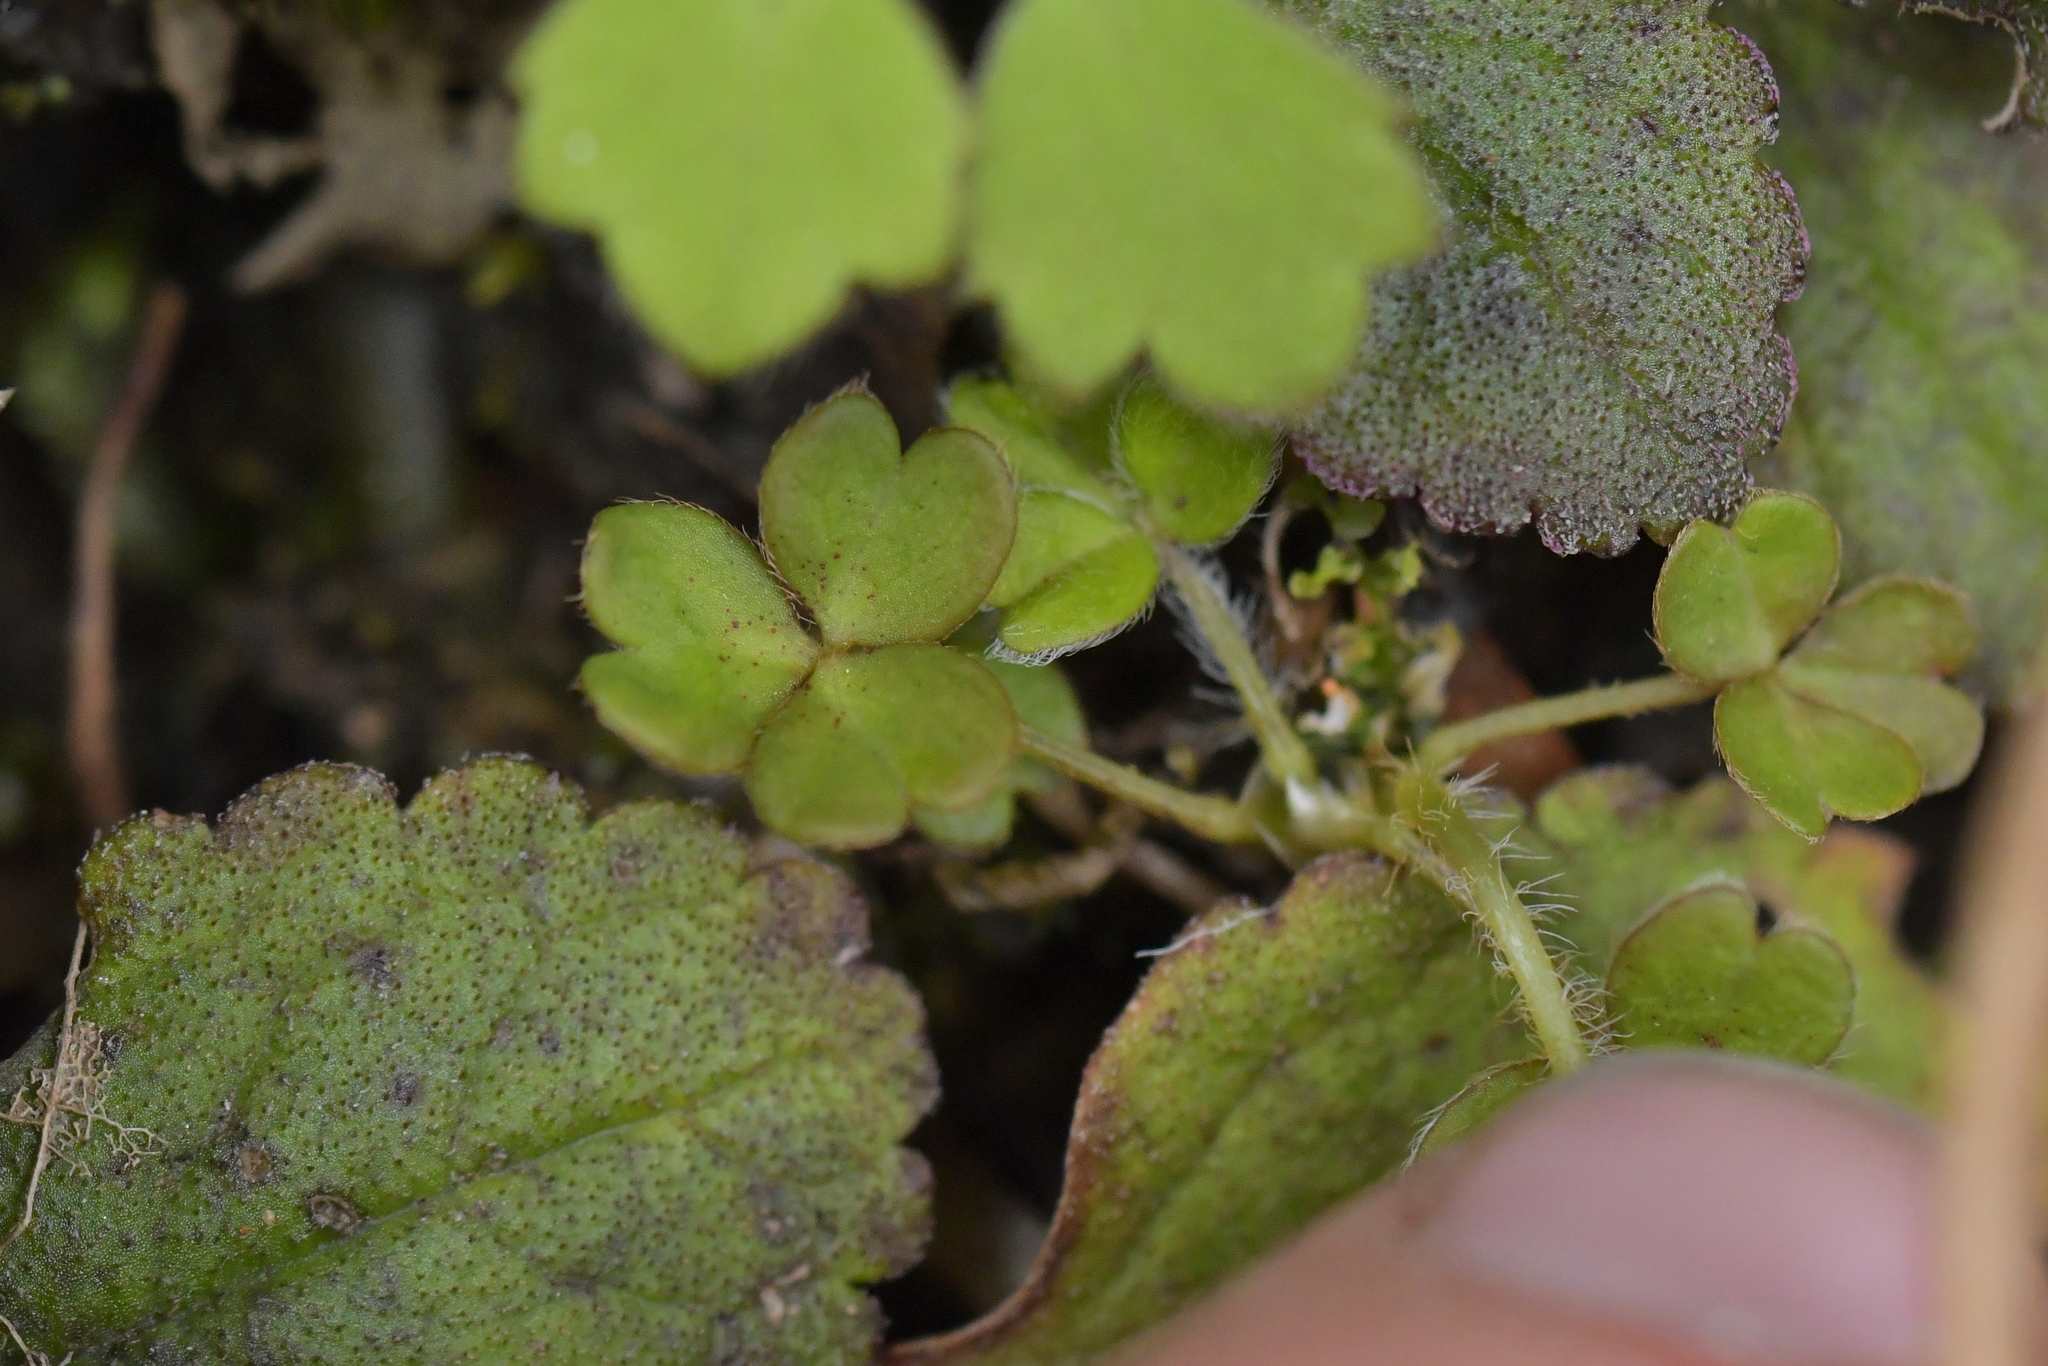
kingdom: Plantae
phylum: Tracheophyta
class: Magnoliopsida
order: Oxalidales
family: Oxalidaceae
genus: Oxalis
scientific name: Oxalis magellanica
